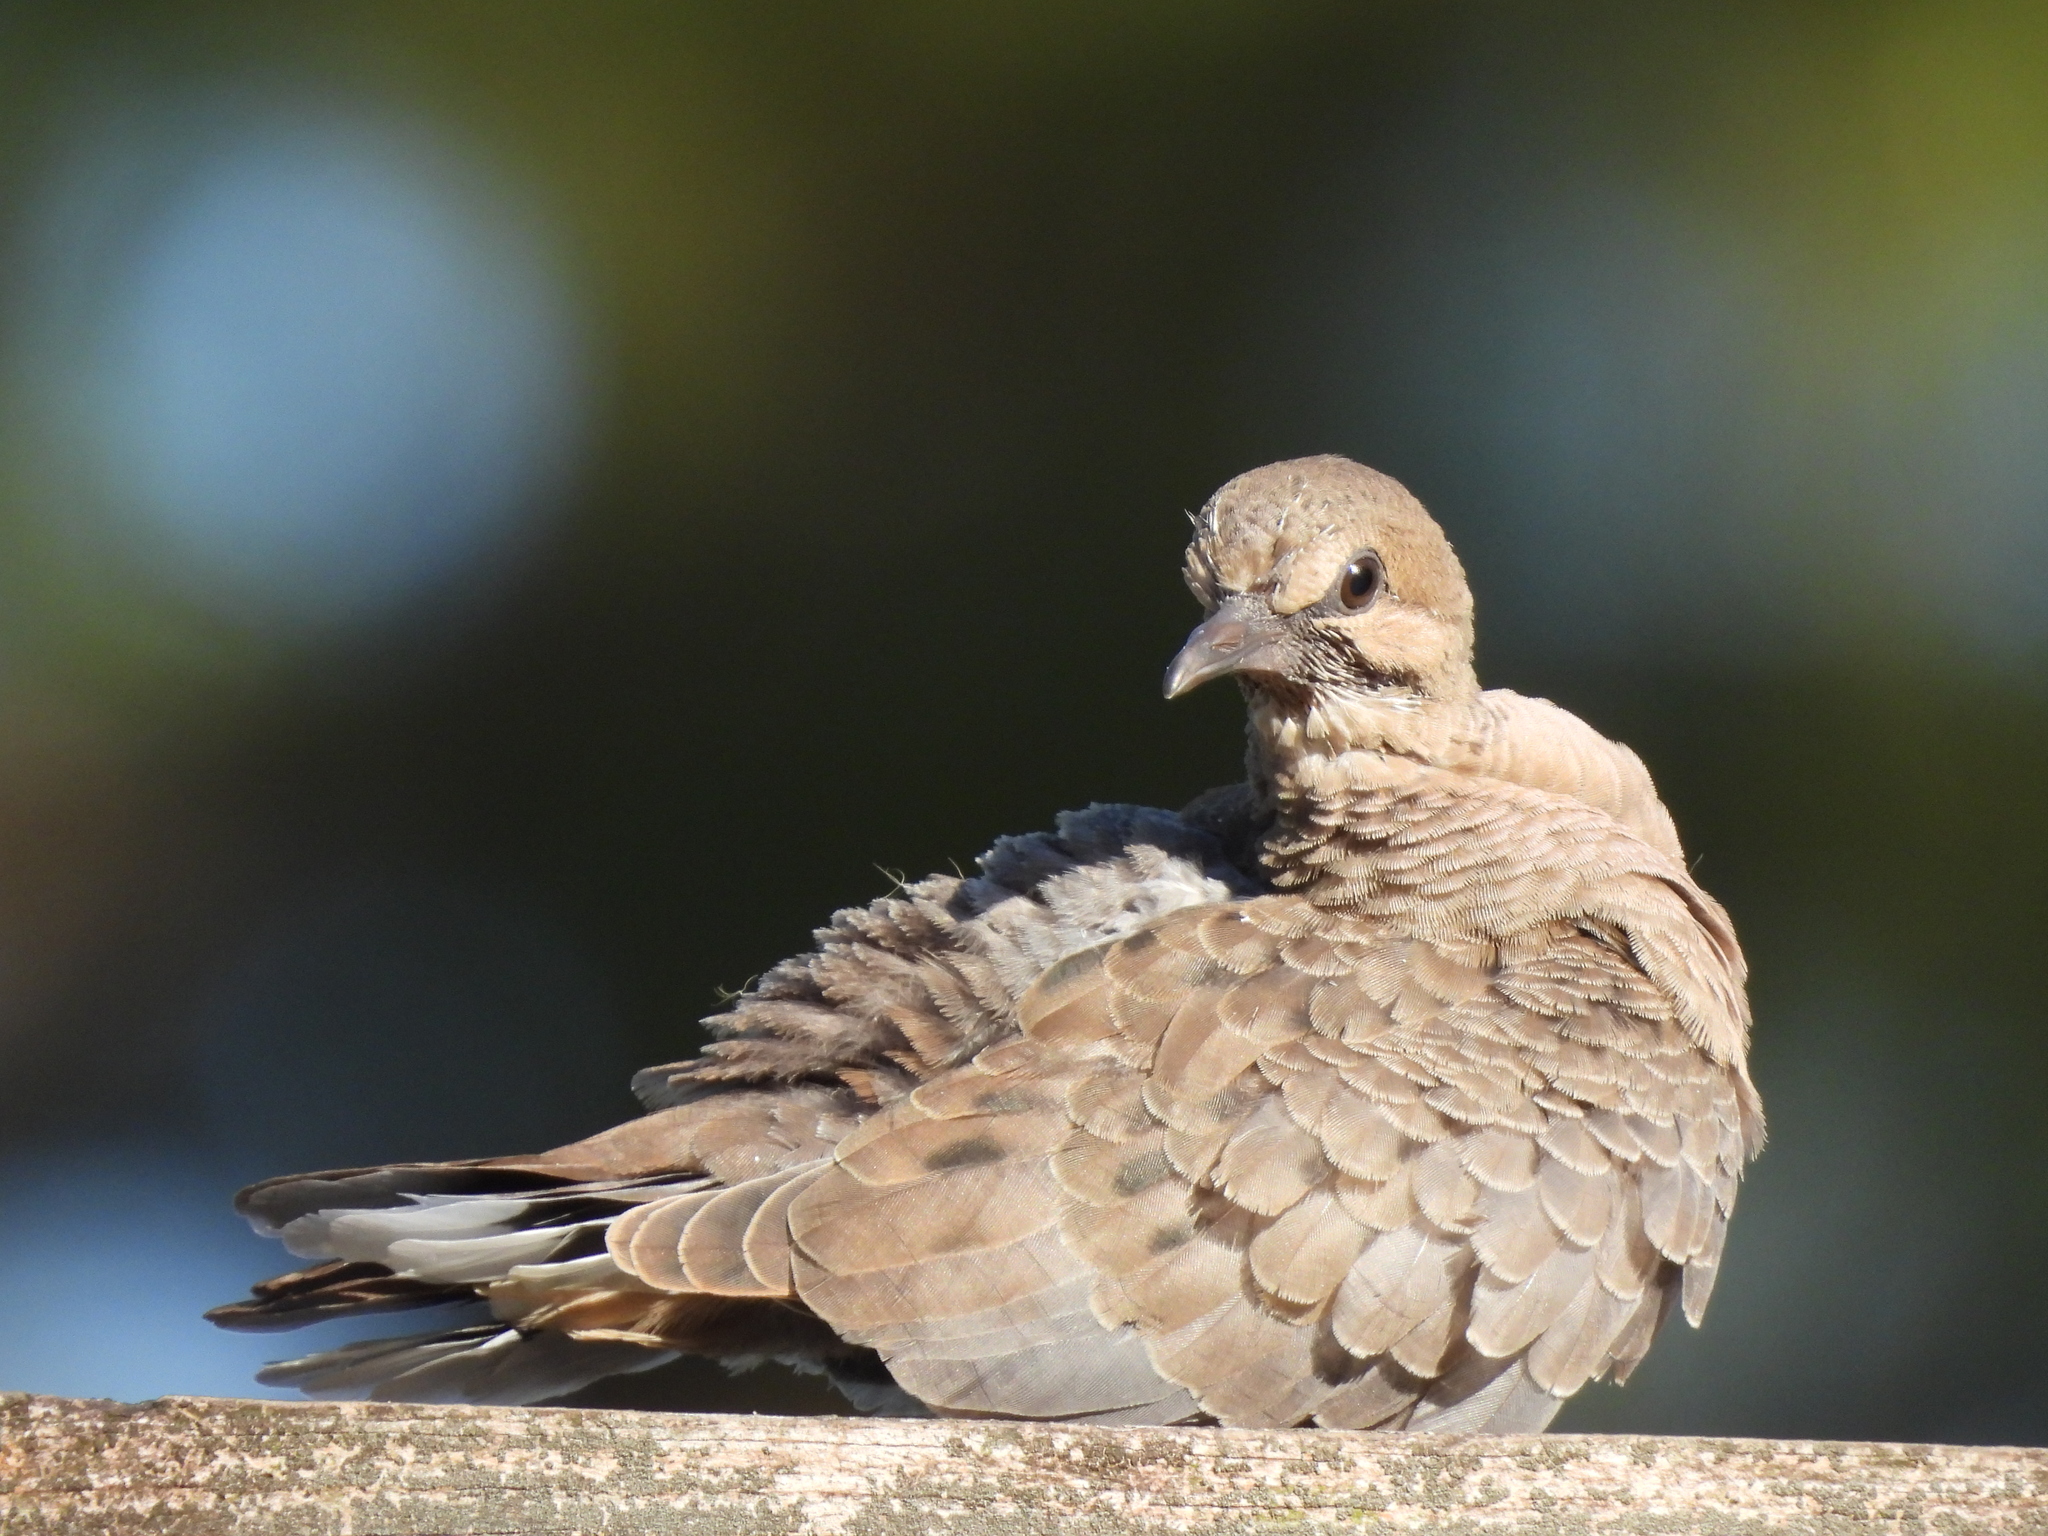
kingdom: Animalia
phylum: Chordata
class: Aves
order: Columbiformes
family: Columbidae
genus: Zenaida
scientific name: Zenaida macroura
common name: Mourning dove
